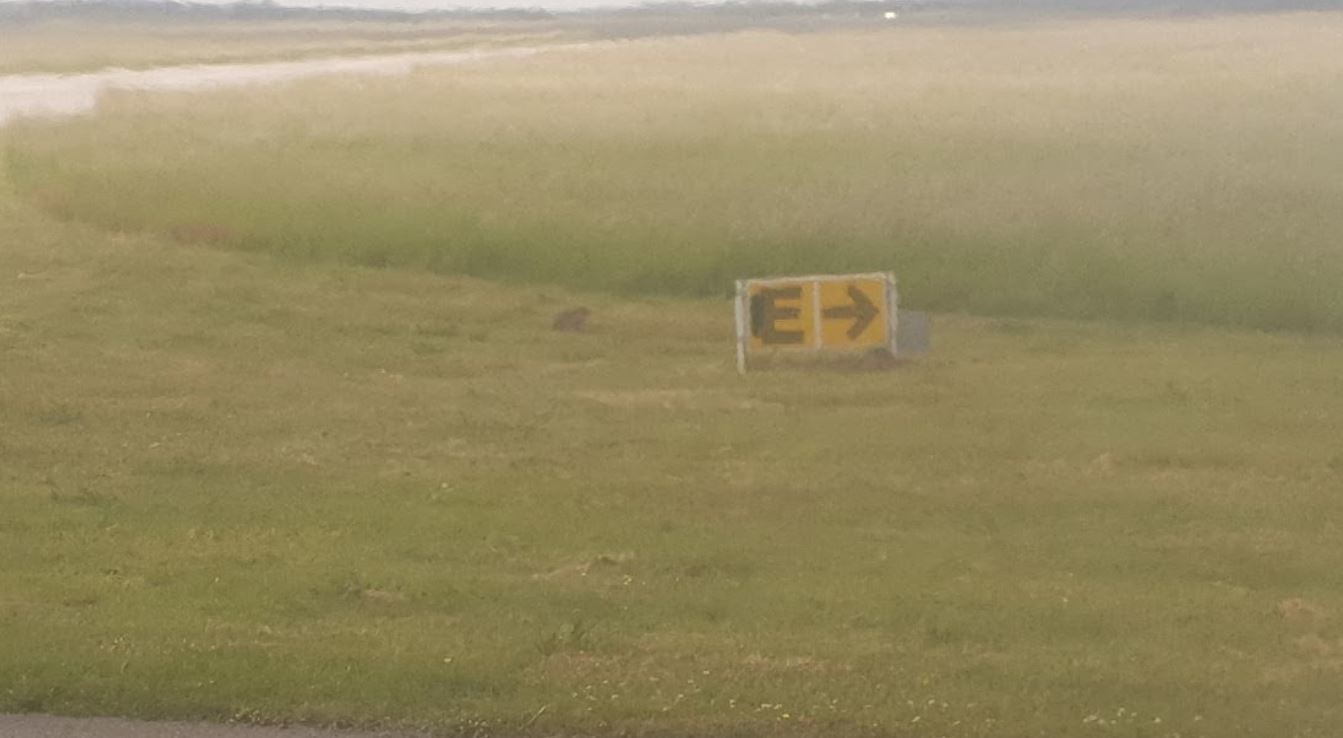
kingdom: Animalia
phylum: Chordata
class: Mammalia
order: Lagomorpha
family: Leporidae
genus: Lepus
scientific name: Lepus europaeus
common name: European hare
